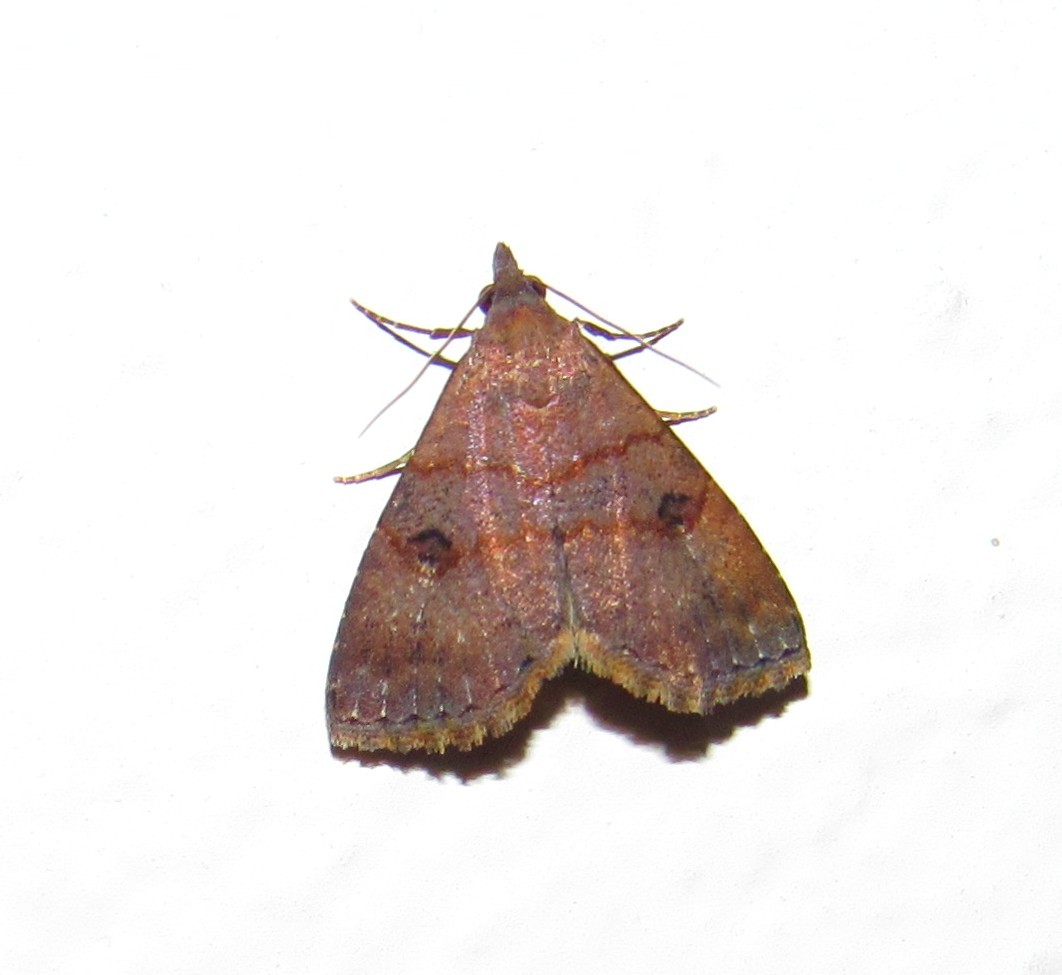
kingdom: Animalia
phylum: Arthropoda
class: Insecta
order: Lepidoptera
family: Noctuidae
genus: Hormoschista
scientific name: Hormoschista latipalpis
